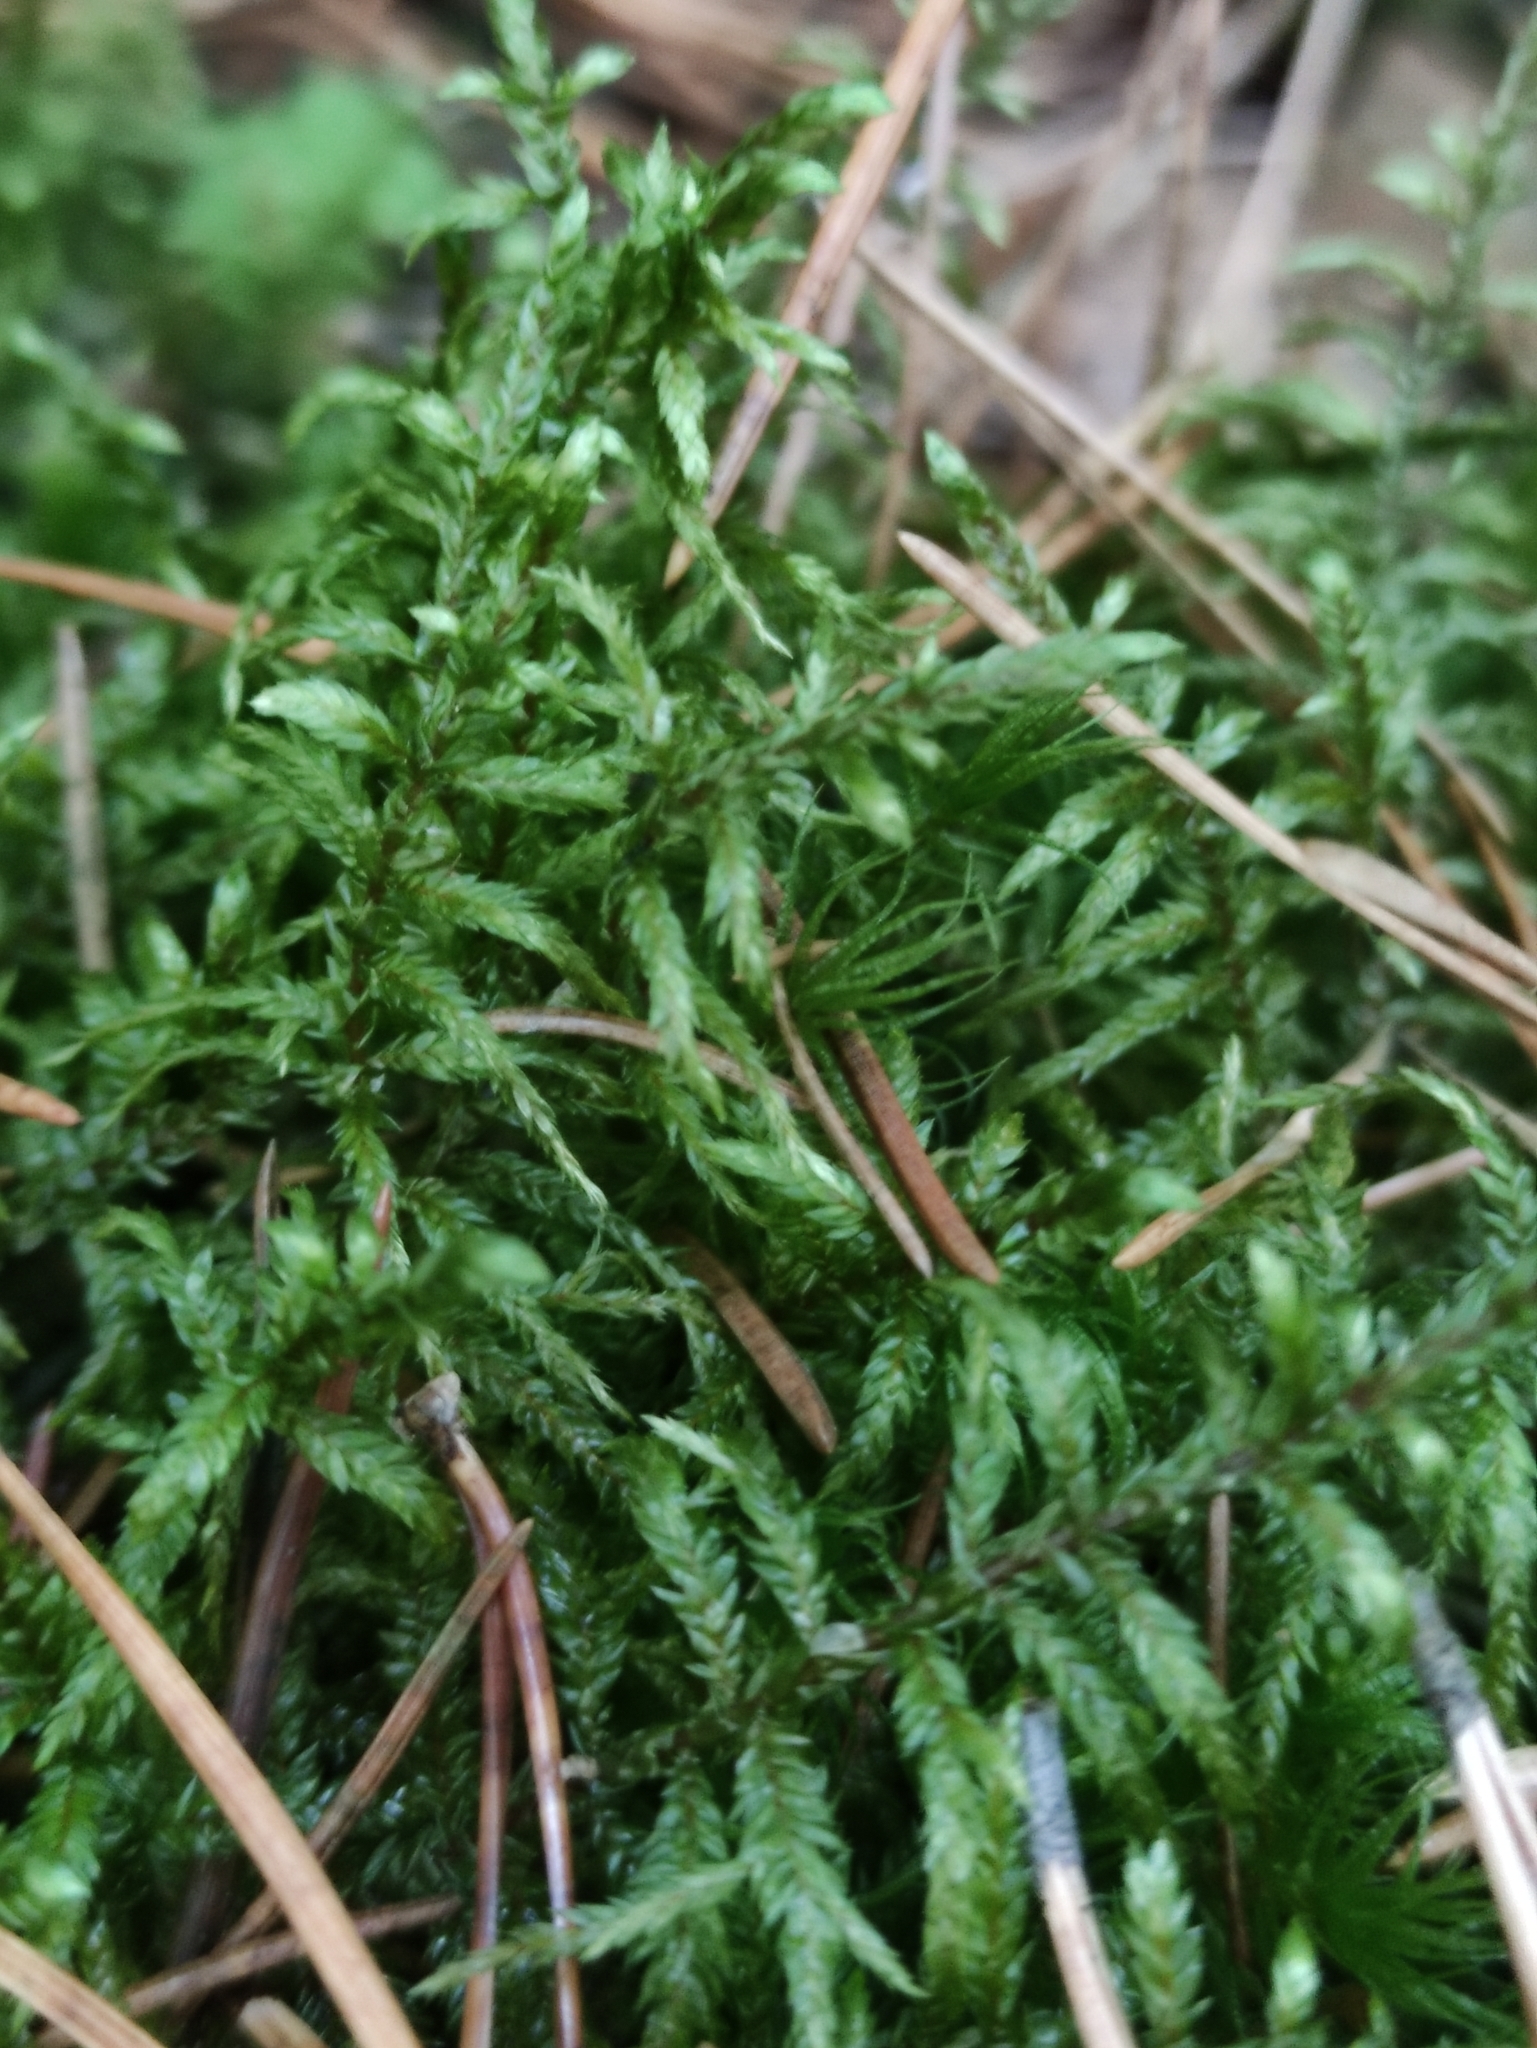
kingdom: Plantae
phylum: Bryophyta
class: Bryopsida
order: Hypnales
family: Hylocomiaceae
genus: Pleurozium
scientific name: Pleurozium schreberi
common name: Red-stemmed feather moss
